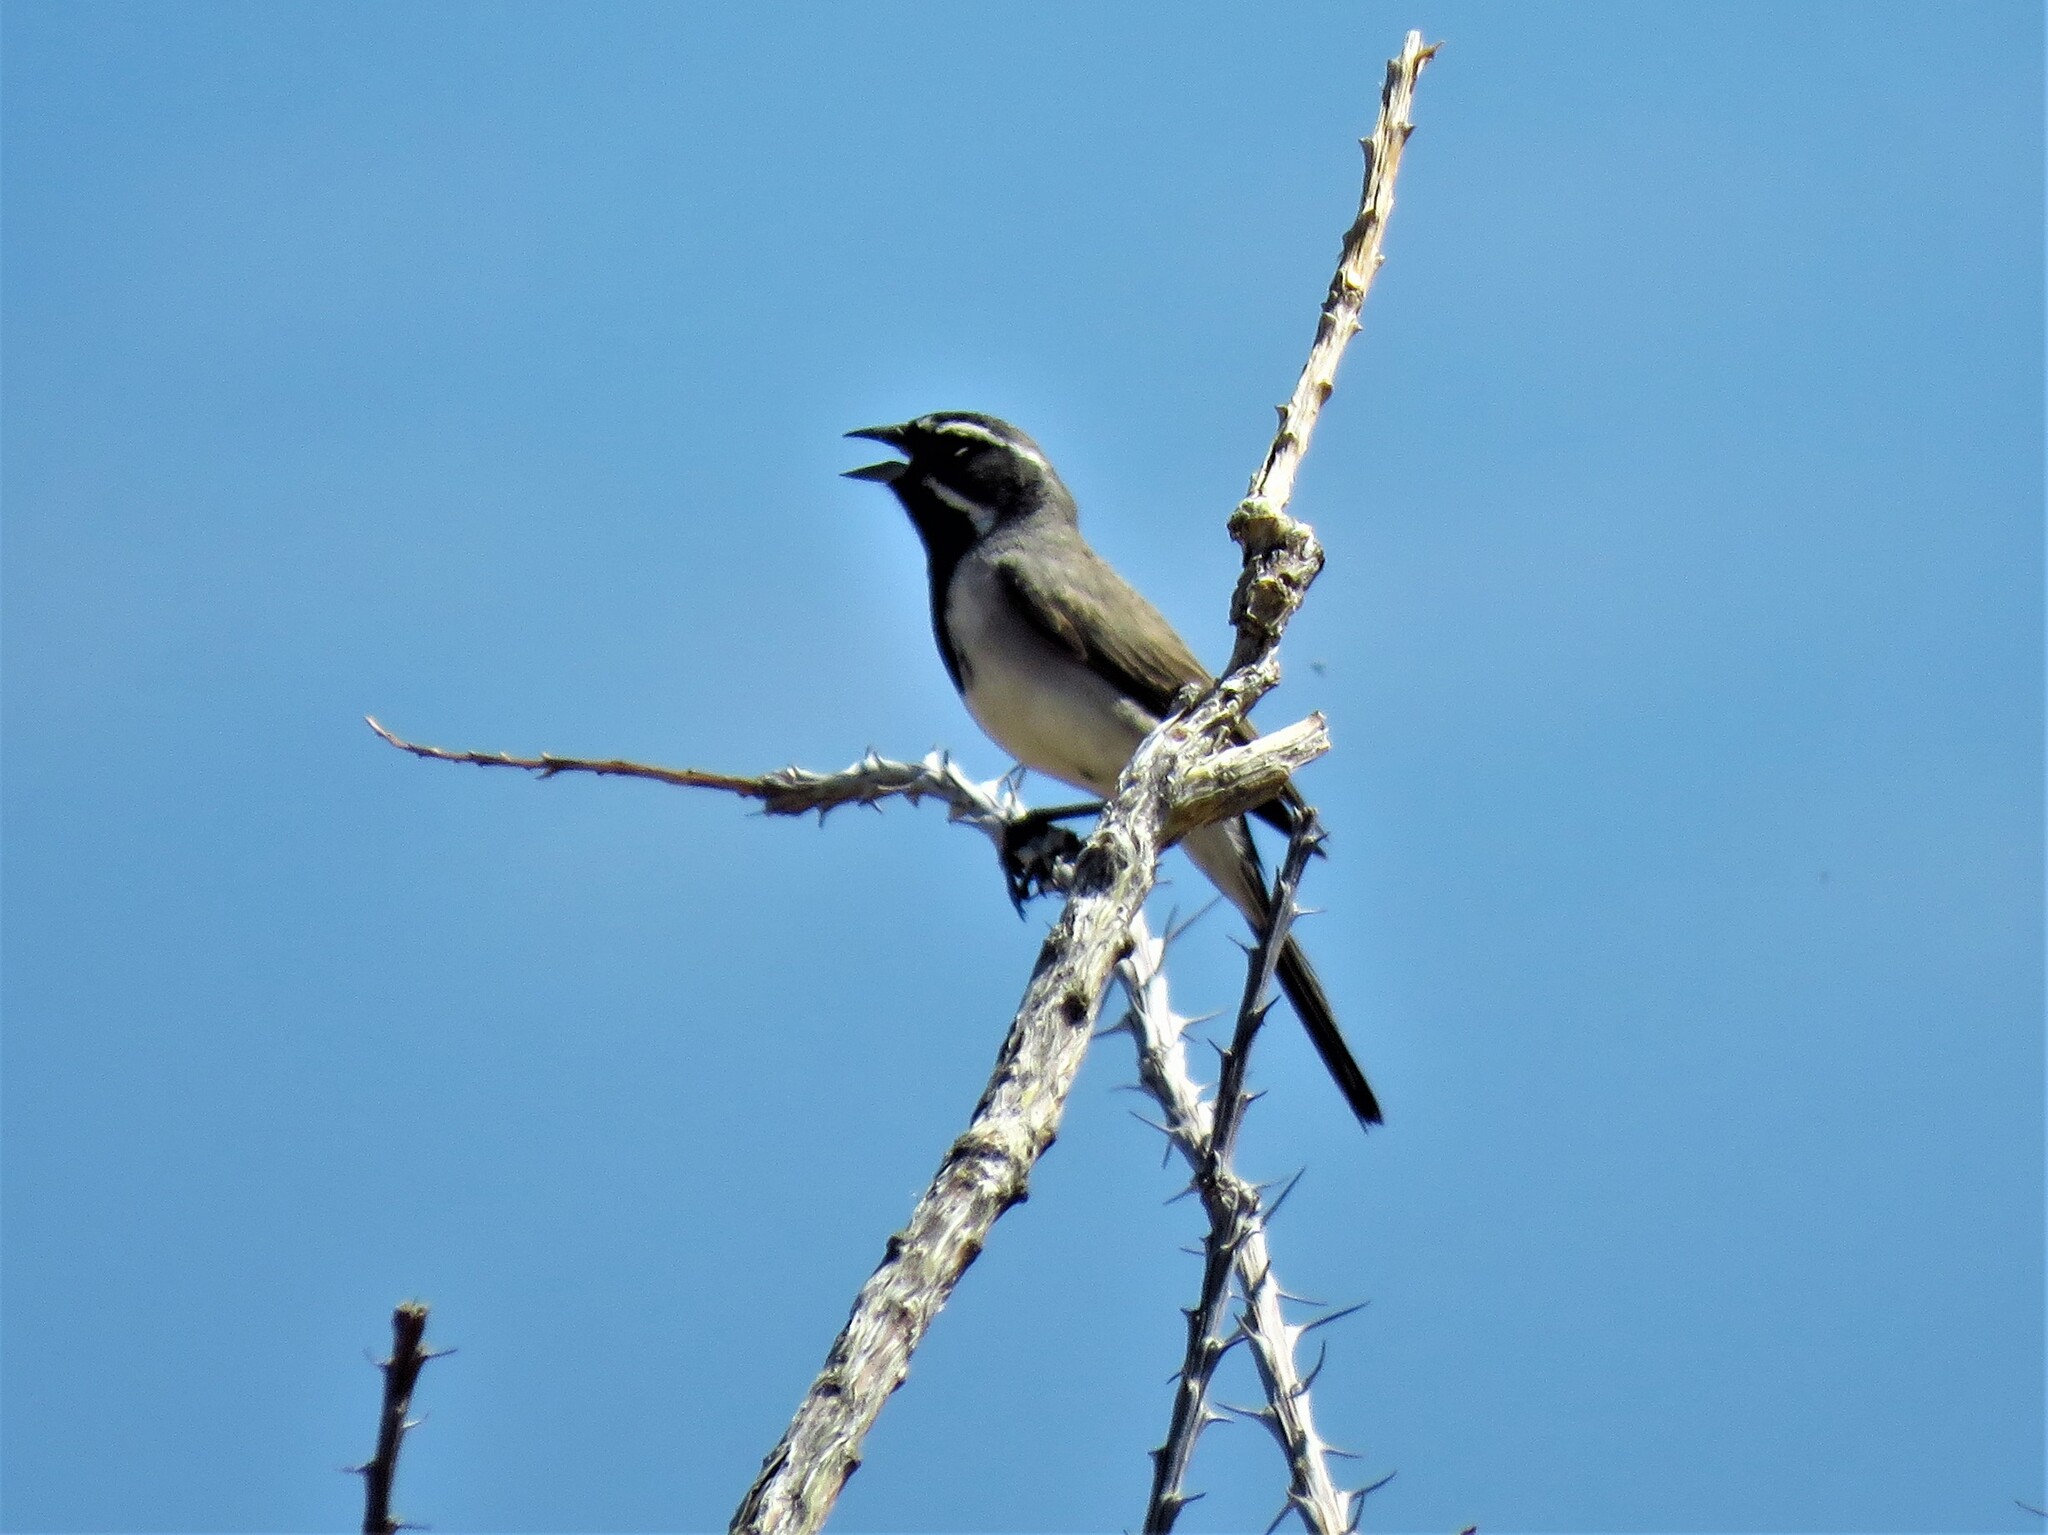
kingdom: Animalia
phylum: Chordata
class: Aves
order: Passeriformes
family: Passerellidae
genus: Amphispiza
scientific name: Amphispiza bilineata
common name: Black-throated sparrow
